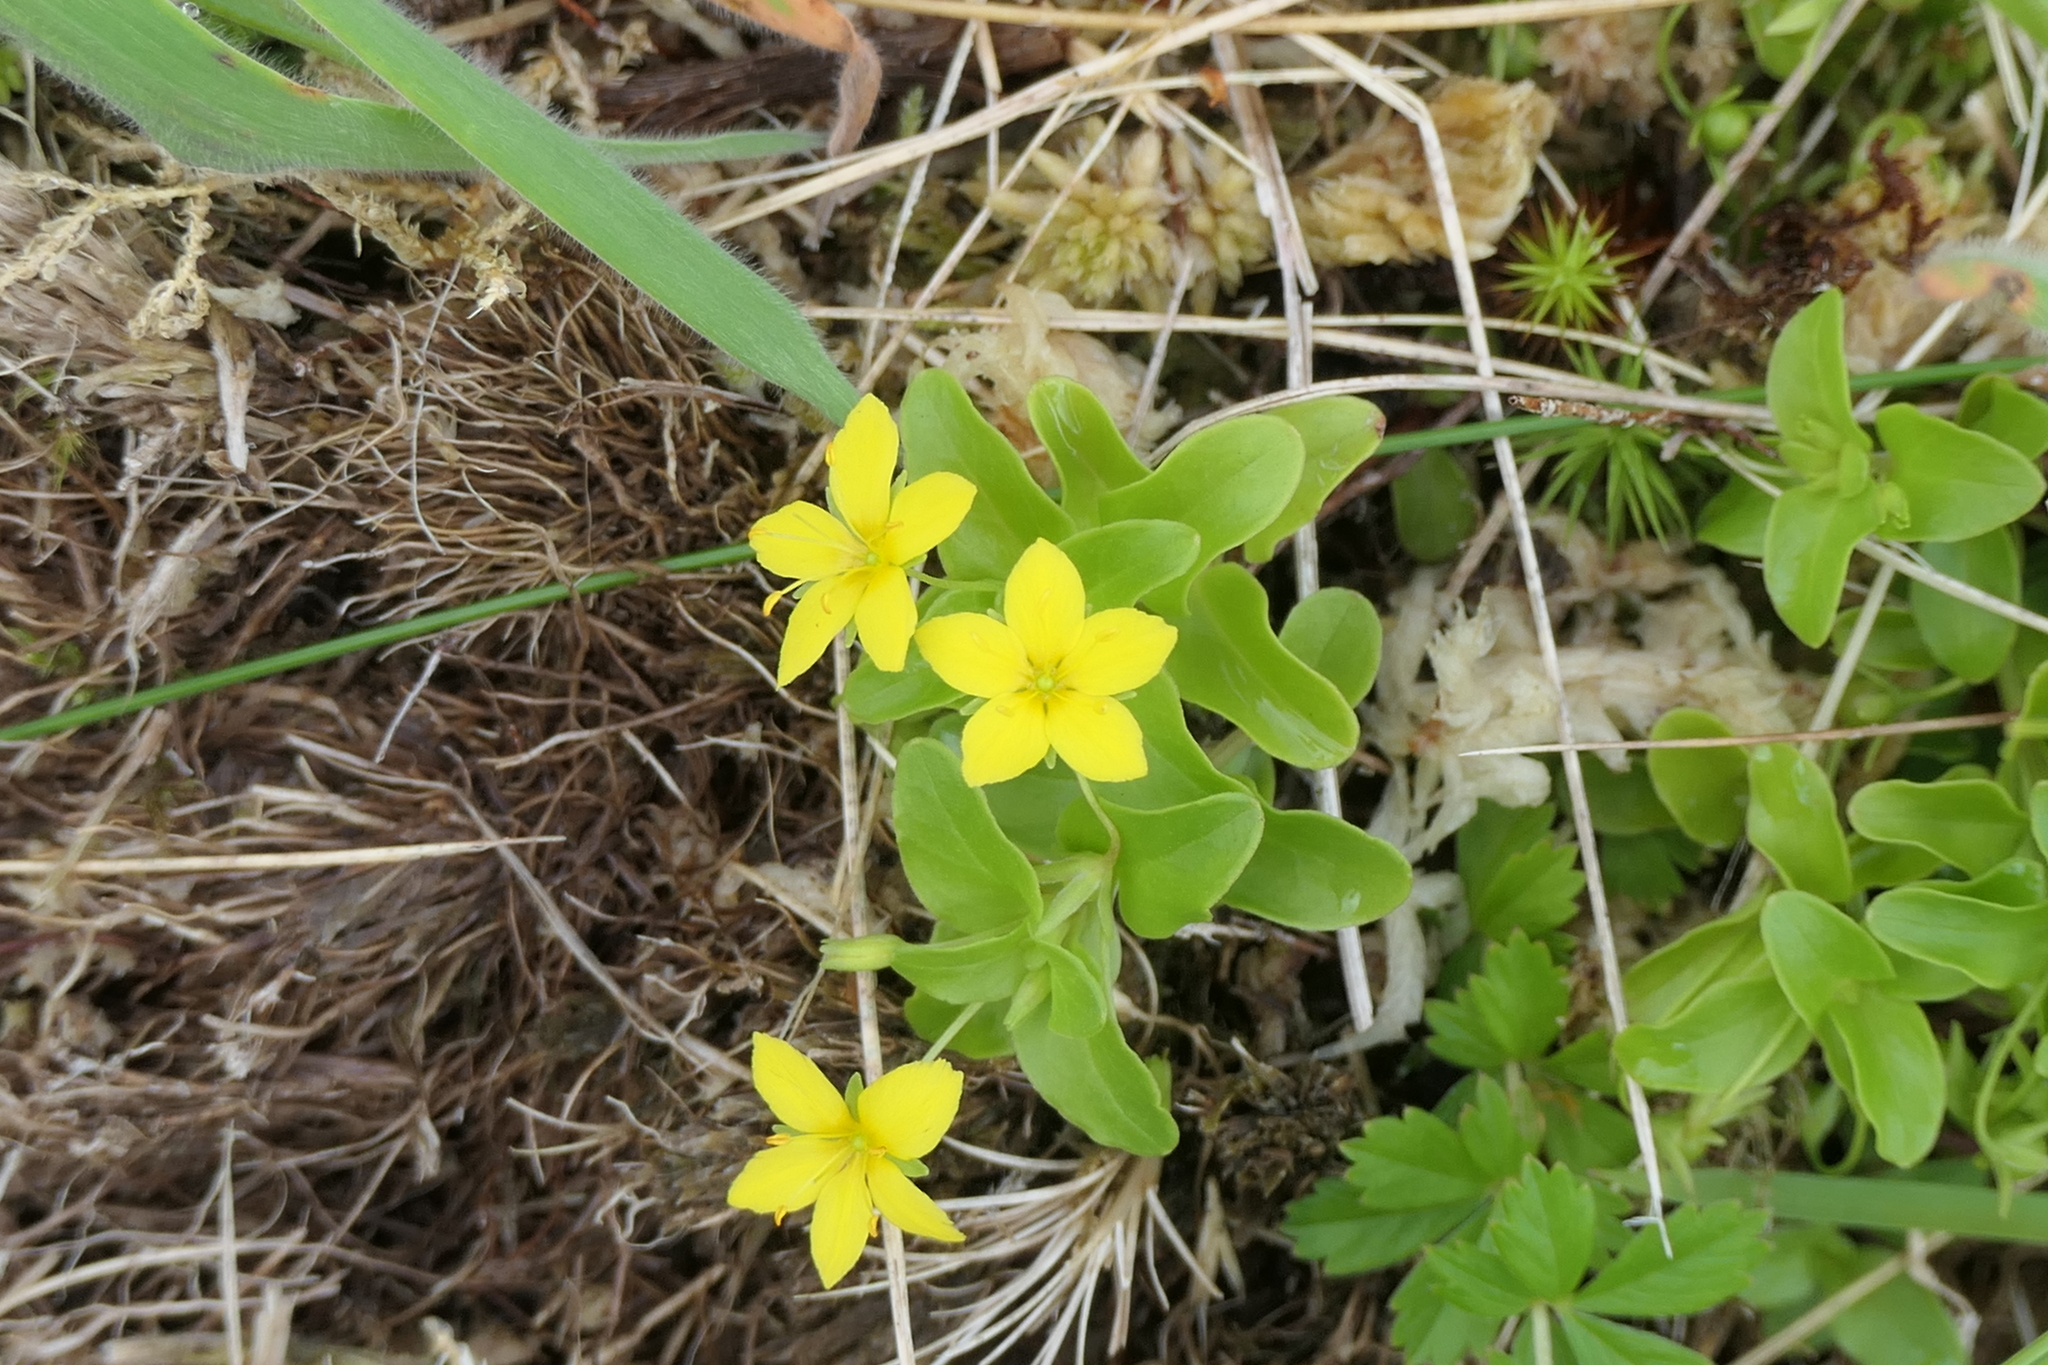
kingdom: Plantae
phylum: Tracheophyta
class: Magnoliopsida
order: Ericales
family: Primulaceae
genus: Lysimachia
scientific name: Lysimachia azorica
